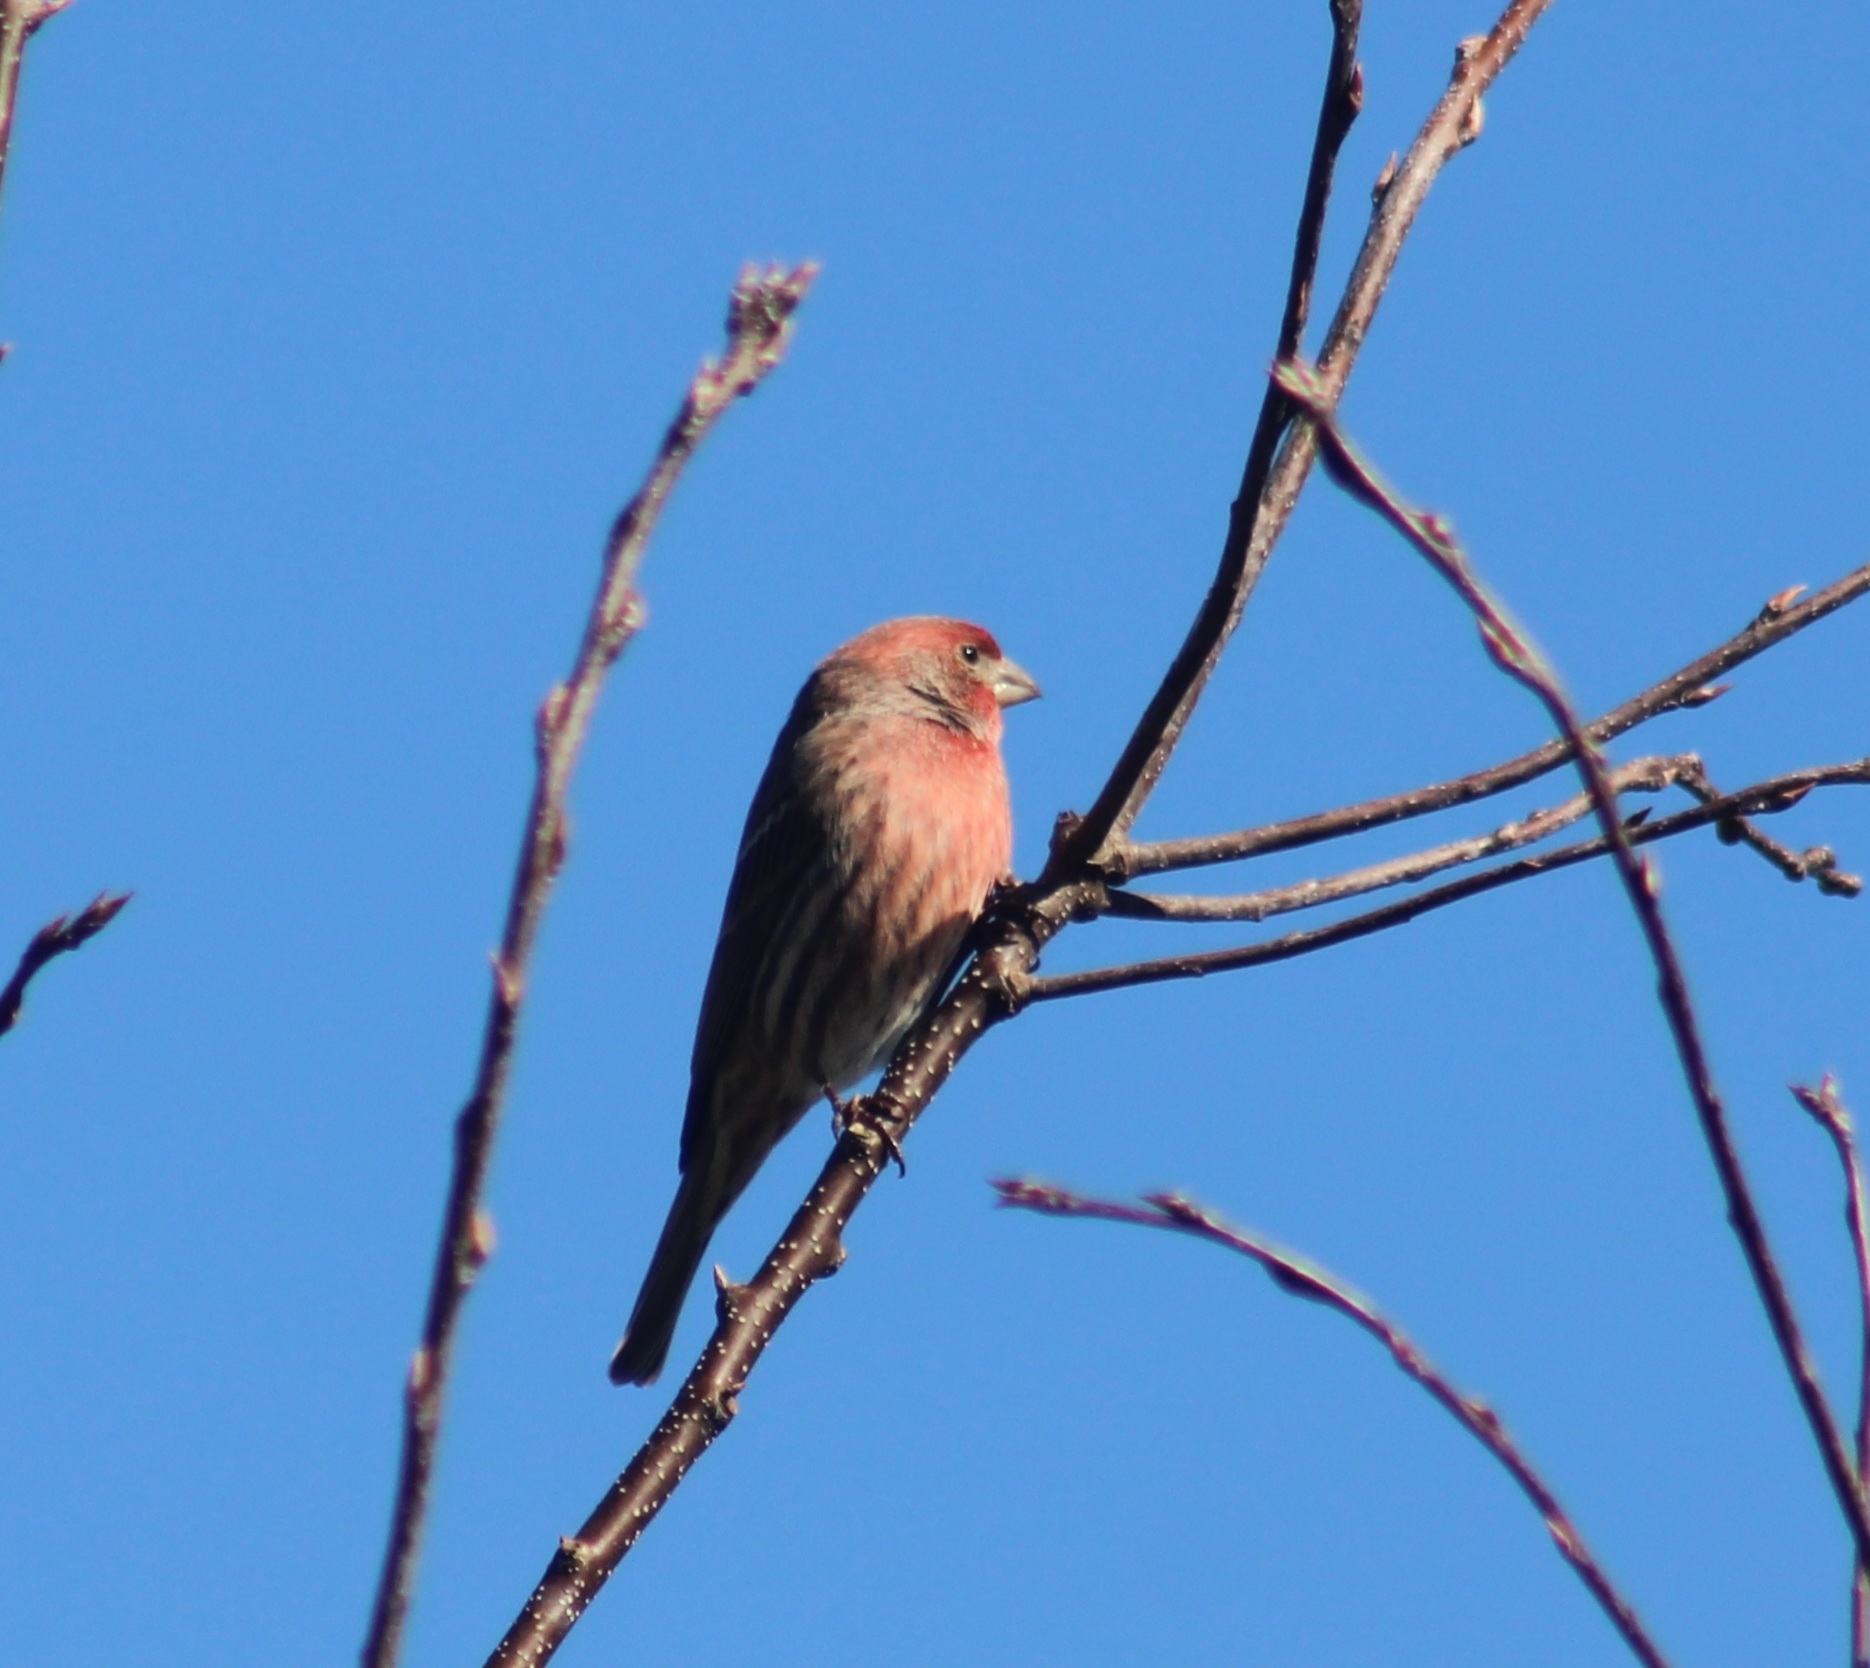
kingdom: Animalia
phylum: Chordata
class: Aves
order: Passeriformes
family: Fringillidae
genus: Haemorhous
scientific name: Haemorhous mexicanus
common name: House finch
